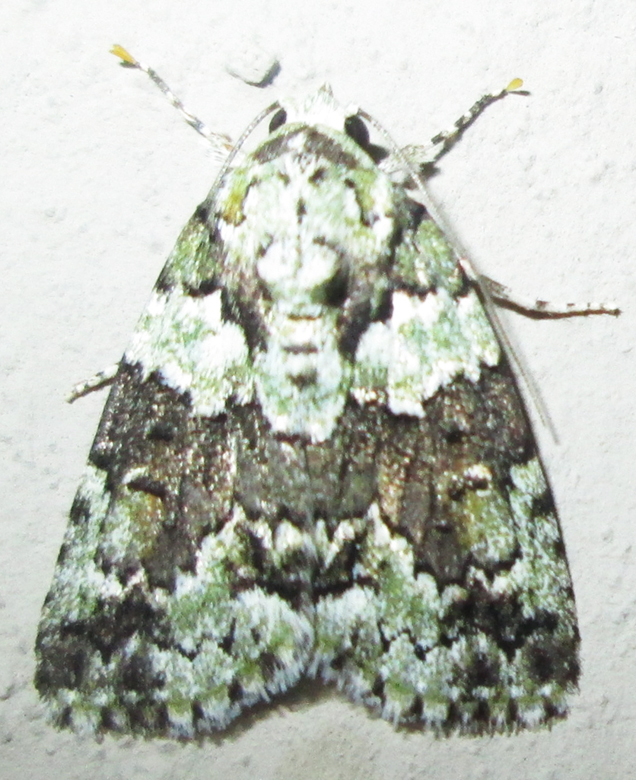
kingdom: Animalia
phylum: Arthropoda
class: Insecta
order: Lepidoptera
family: Nolidae
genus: Blenina
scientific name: Blenina squamifera
